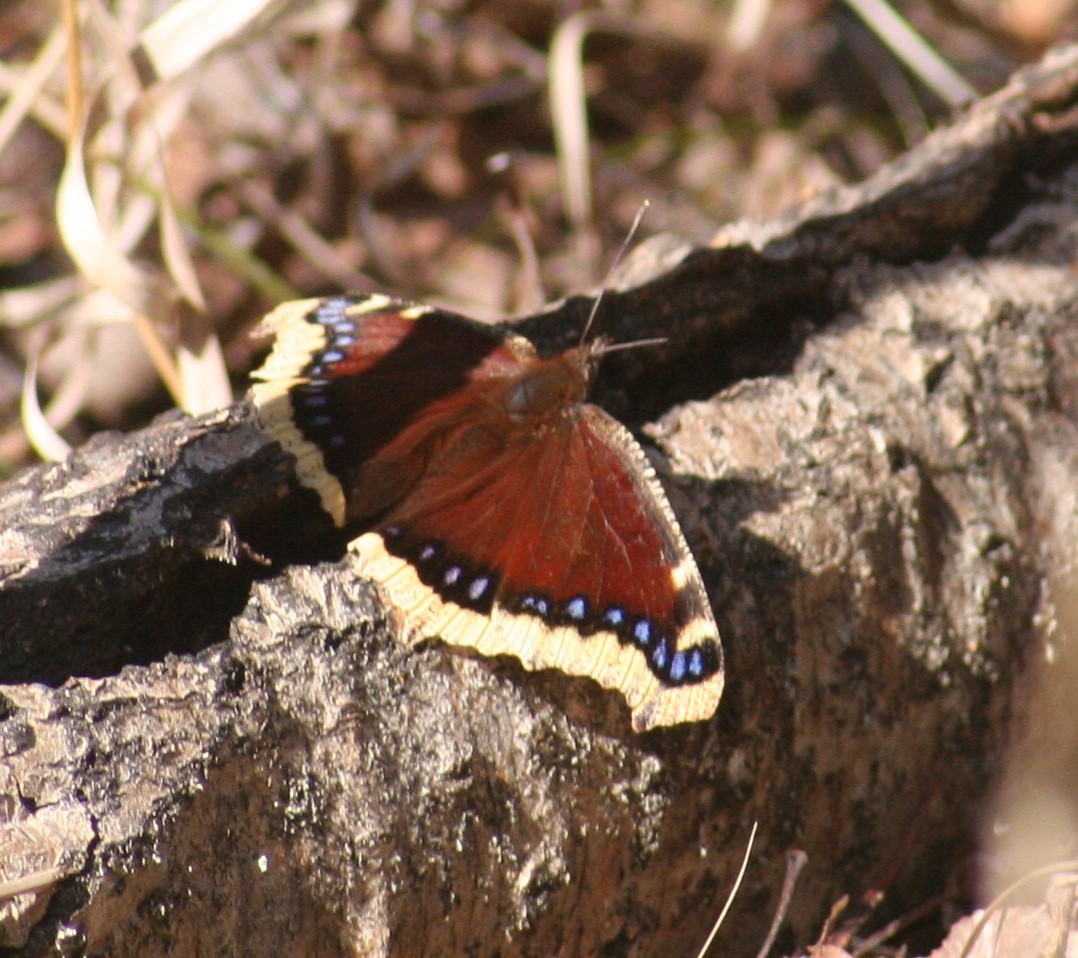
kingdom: Animalia
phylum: Arthropoda
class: Insecta
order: Lepidoptera
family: Nymphalidae
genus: Nymphalis
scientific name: Nymphalis antiopa
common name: Camberwell beauty
